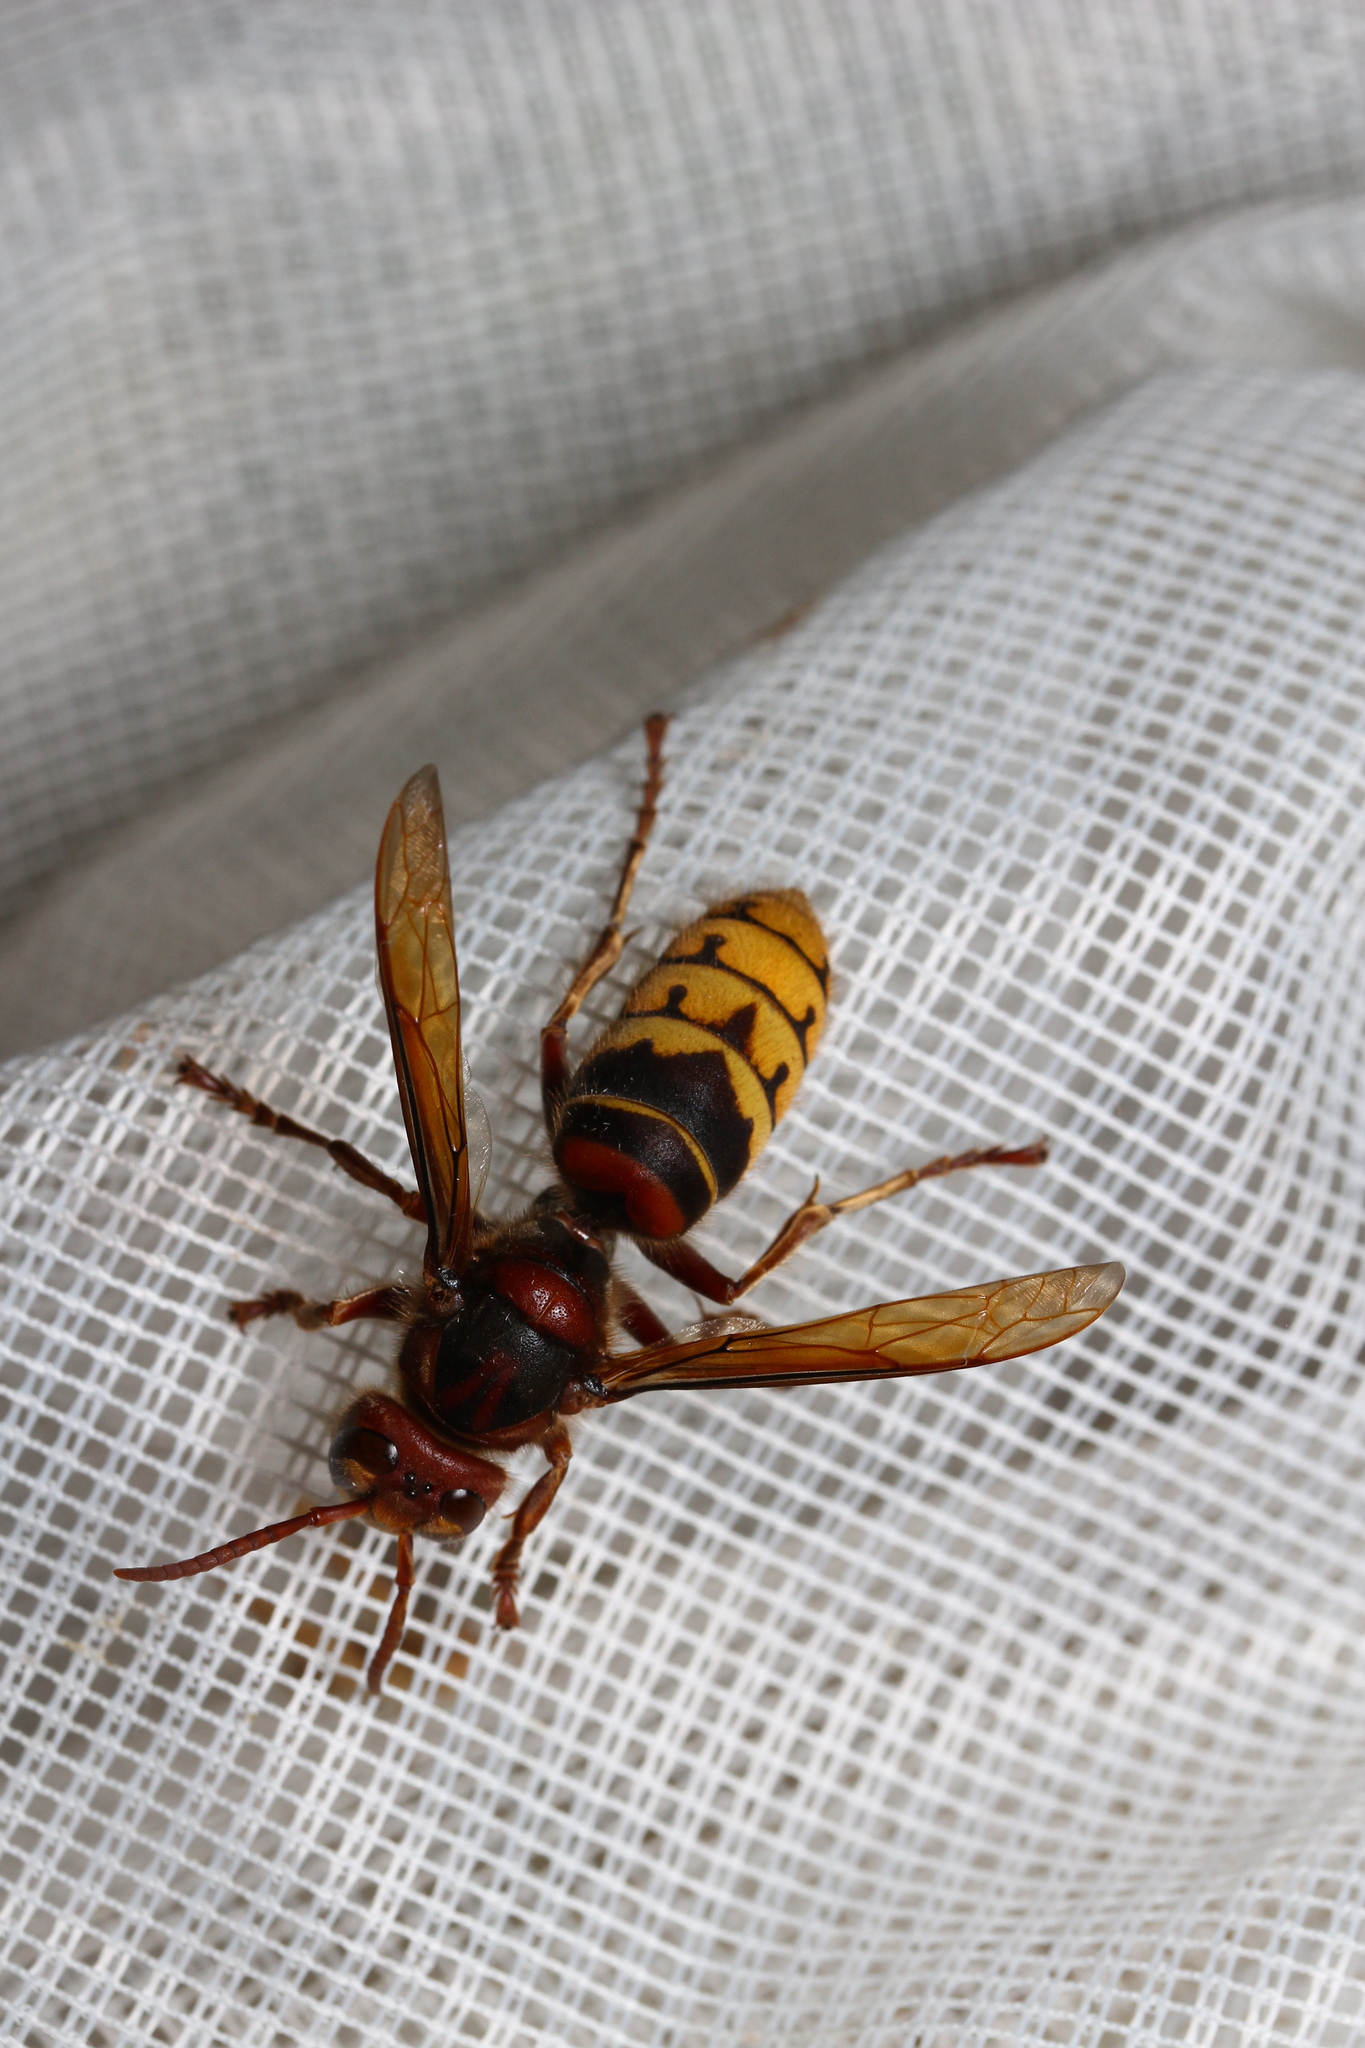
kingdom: Animalia
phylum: Arthropoda
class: Insecta
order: Hymenoptera
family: Vespidae
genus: Vespa
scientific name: Vespa crabro
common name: Hornet
